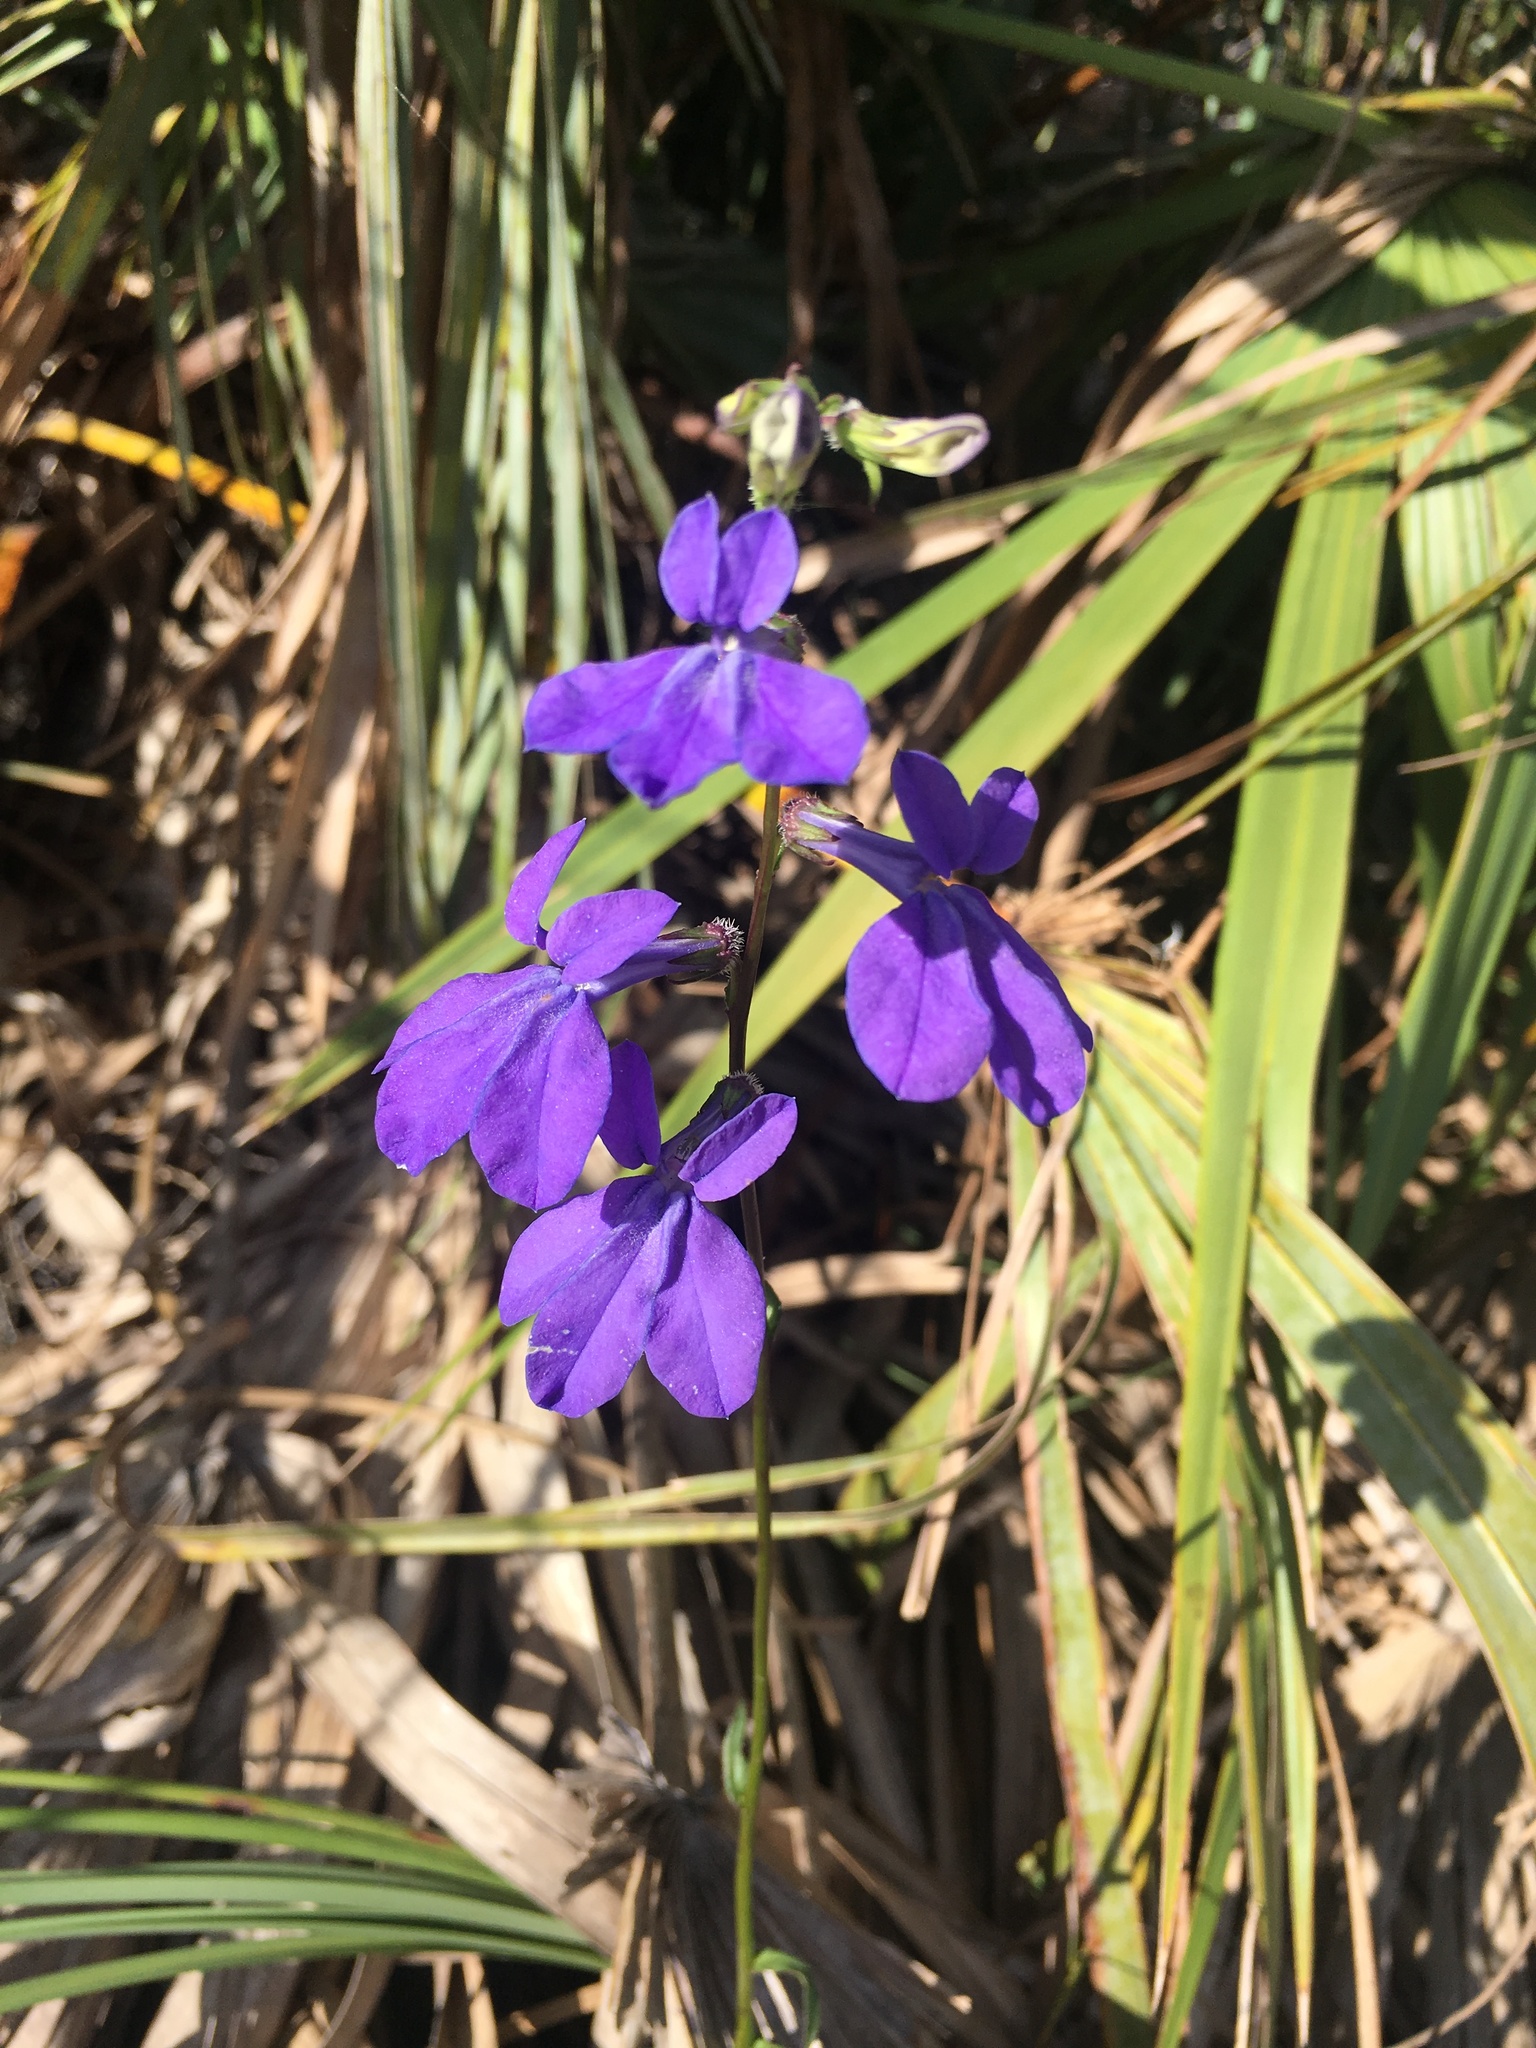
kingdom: Plantae
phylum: Tracheophyta
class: Magnoliopsida
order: Asterales
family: Campanulaceae
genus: Lobelia
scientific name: Lobelia glandulosa
